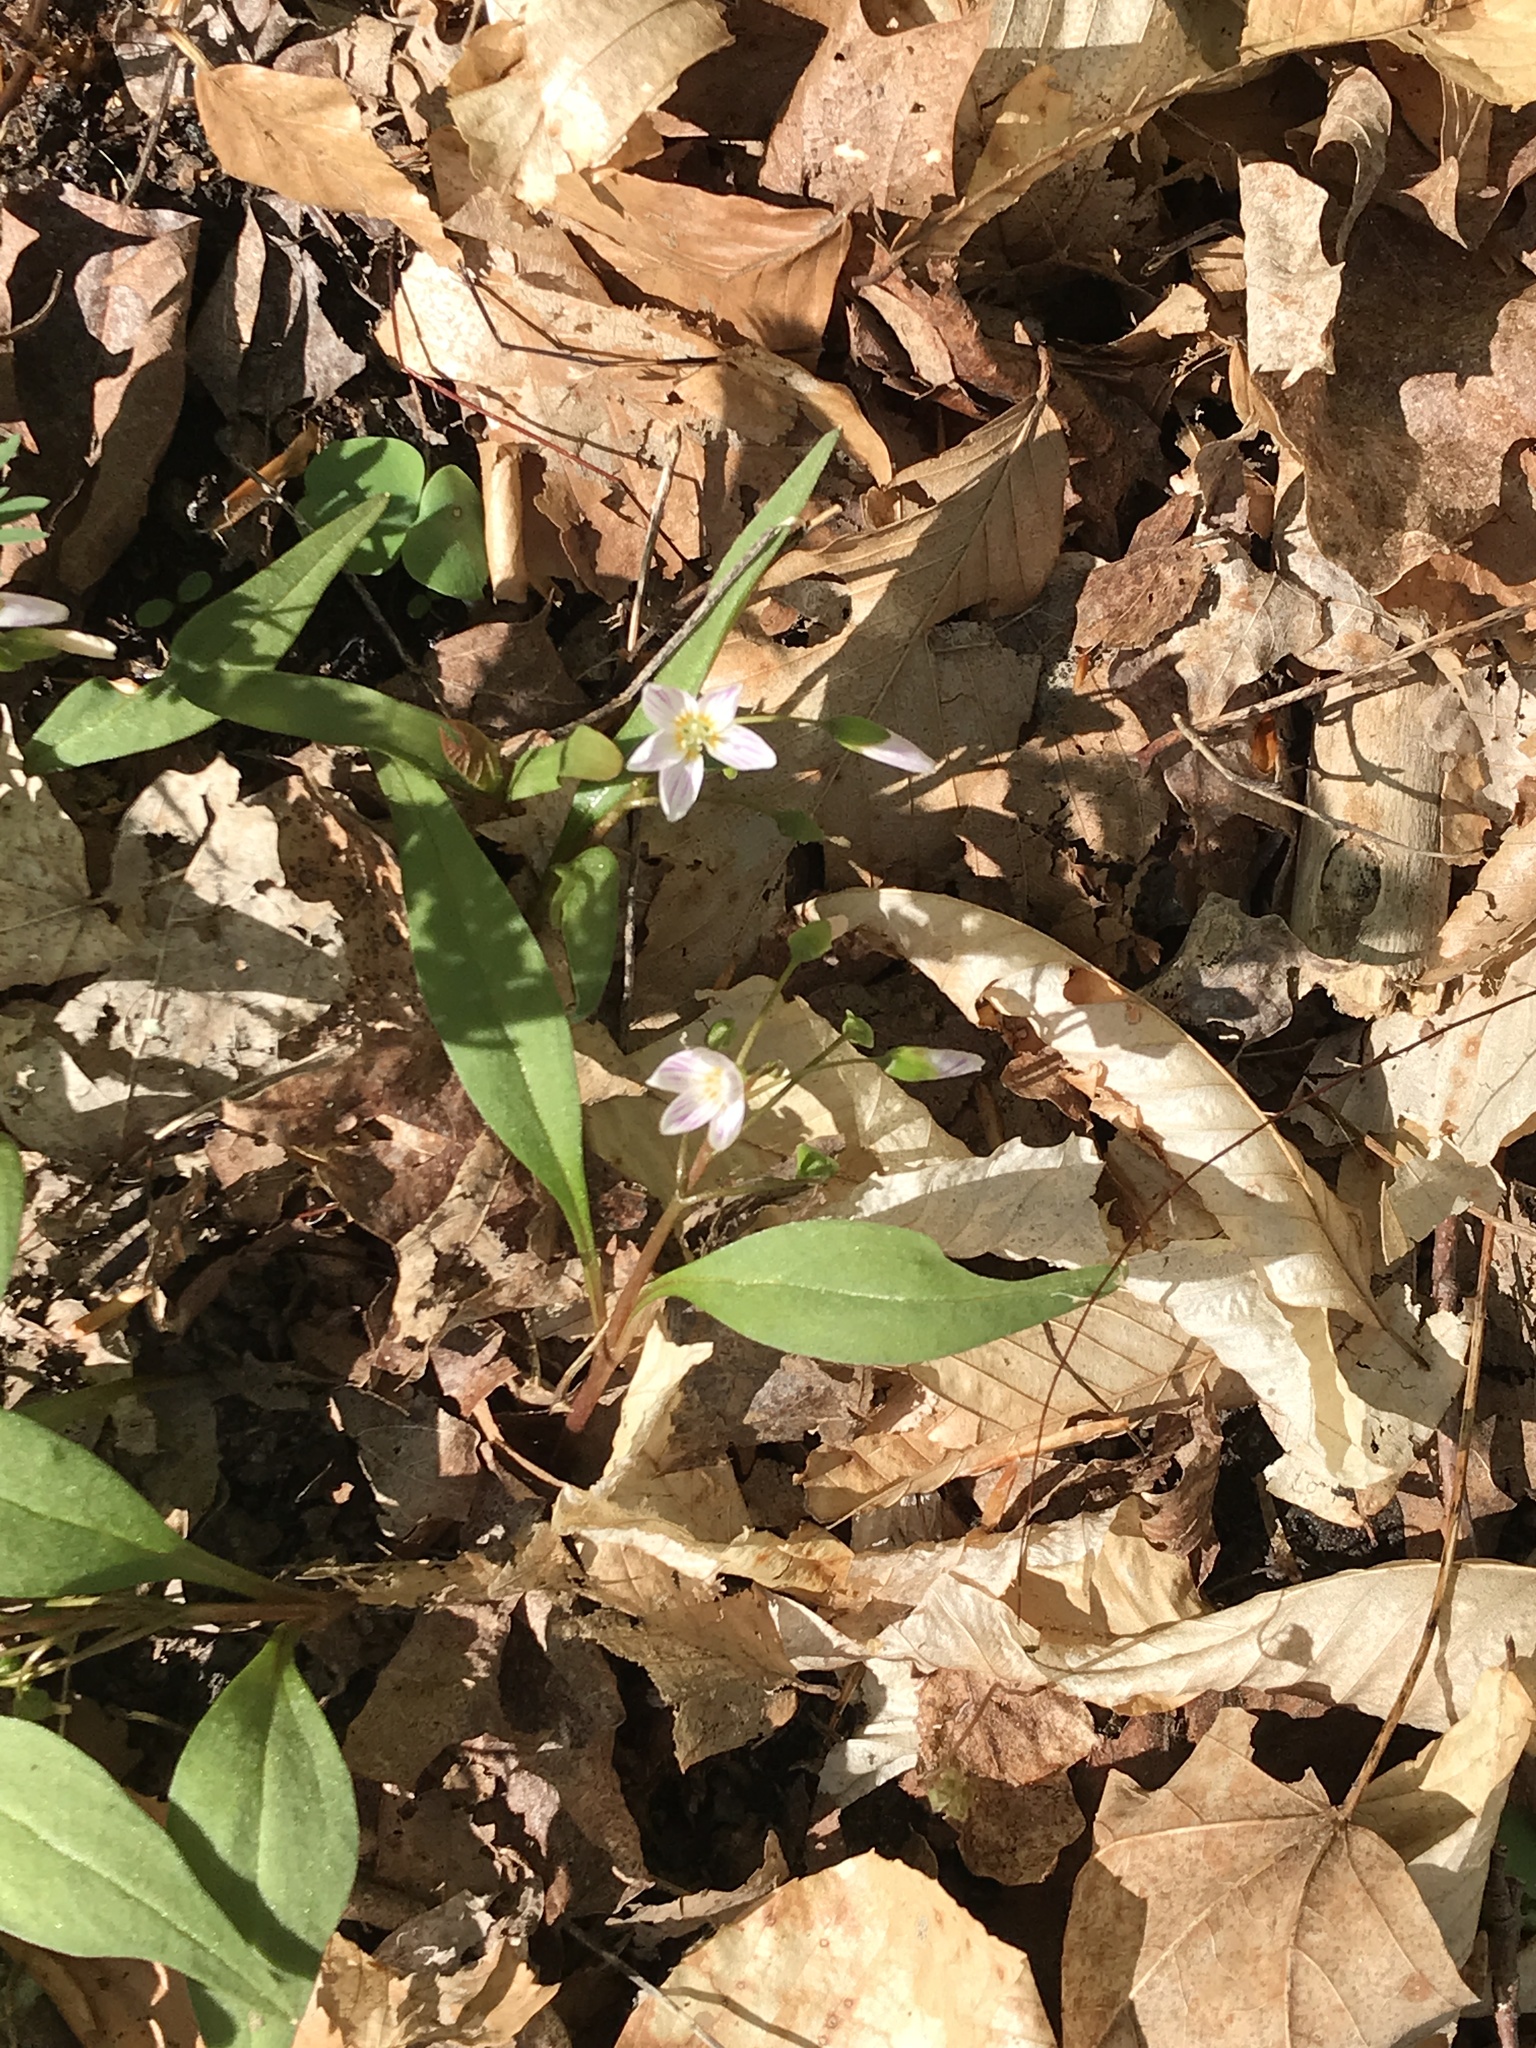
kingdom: Plantae
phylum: Tracheophyta
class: Magnoliopsida
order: Caryophyllales
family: Montiaceae
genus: Claytonia
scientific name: Claytonia caroliniana
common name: Carolina spring beauty
